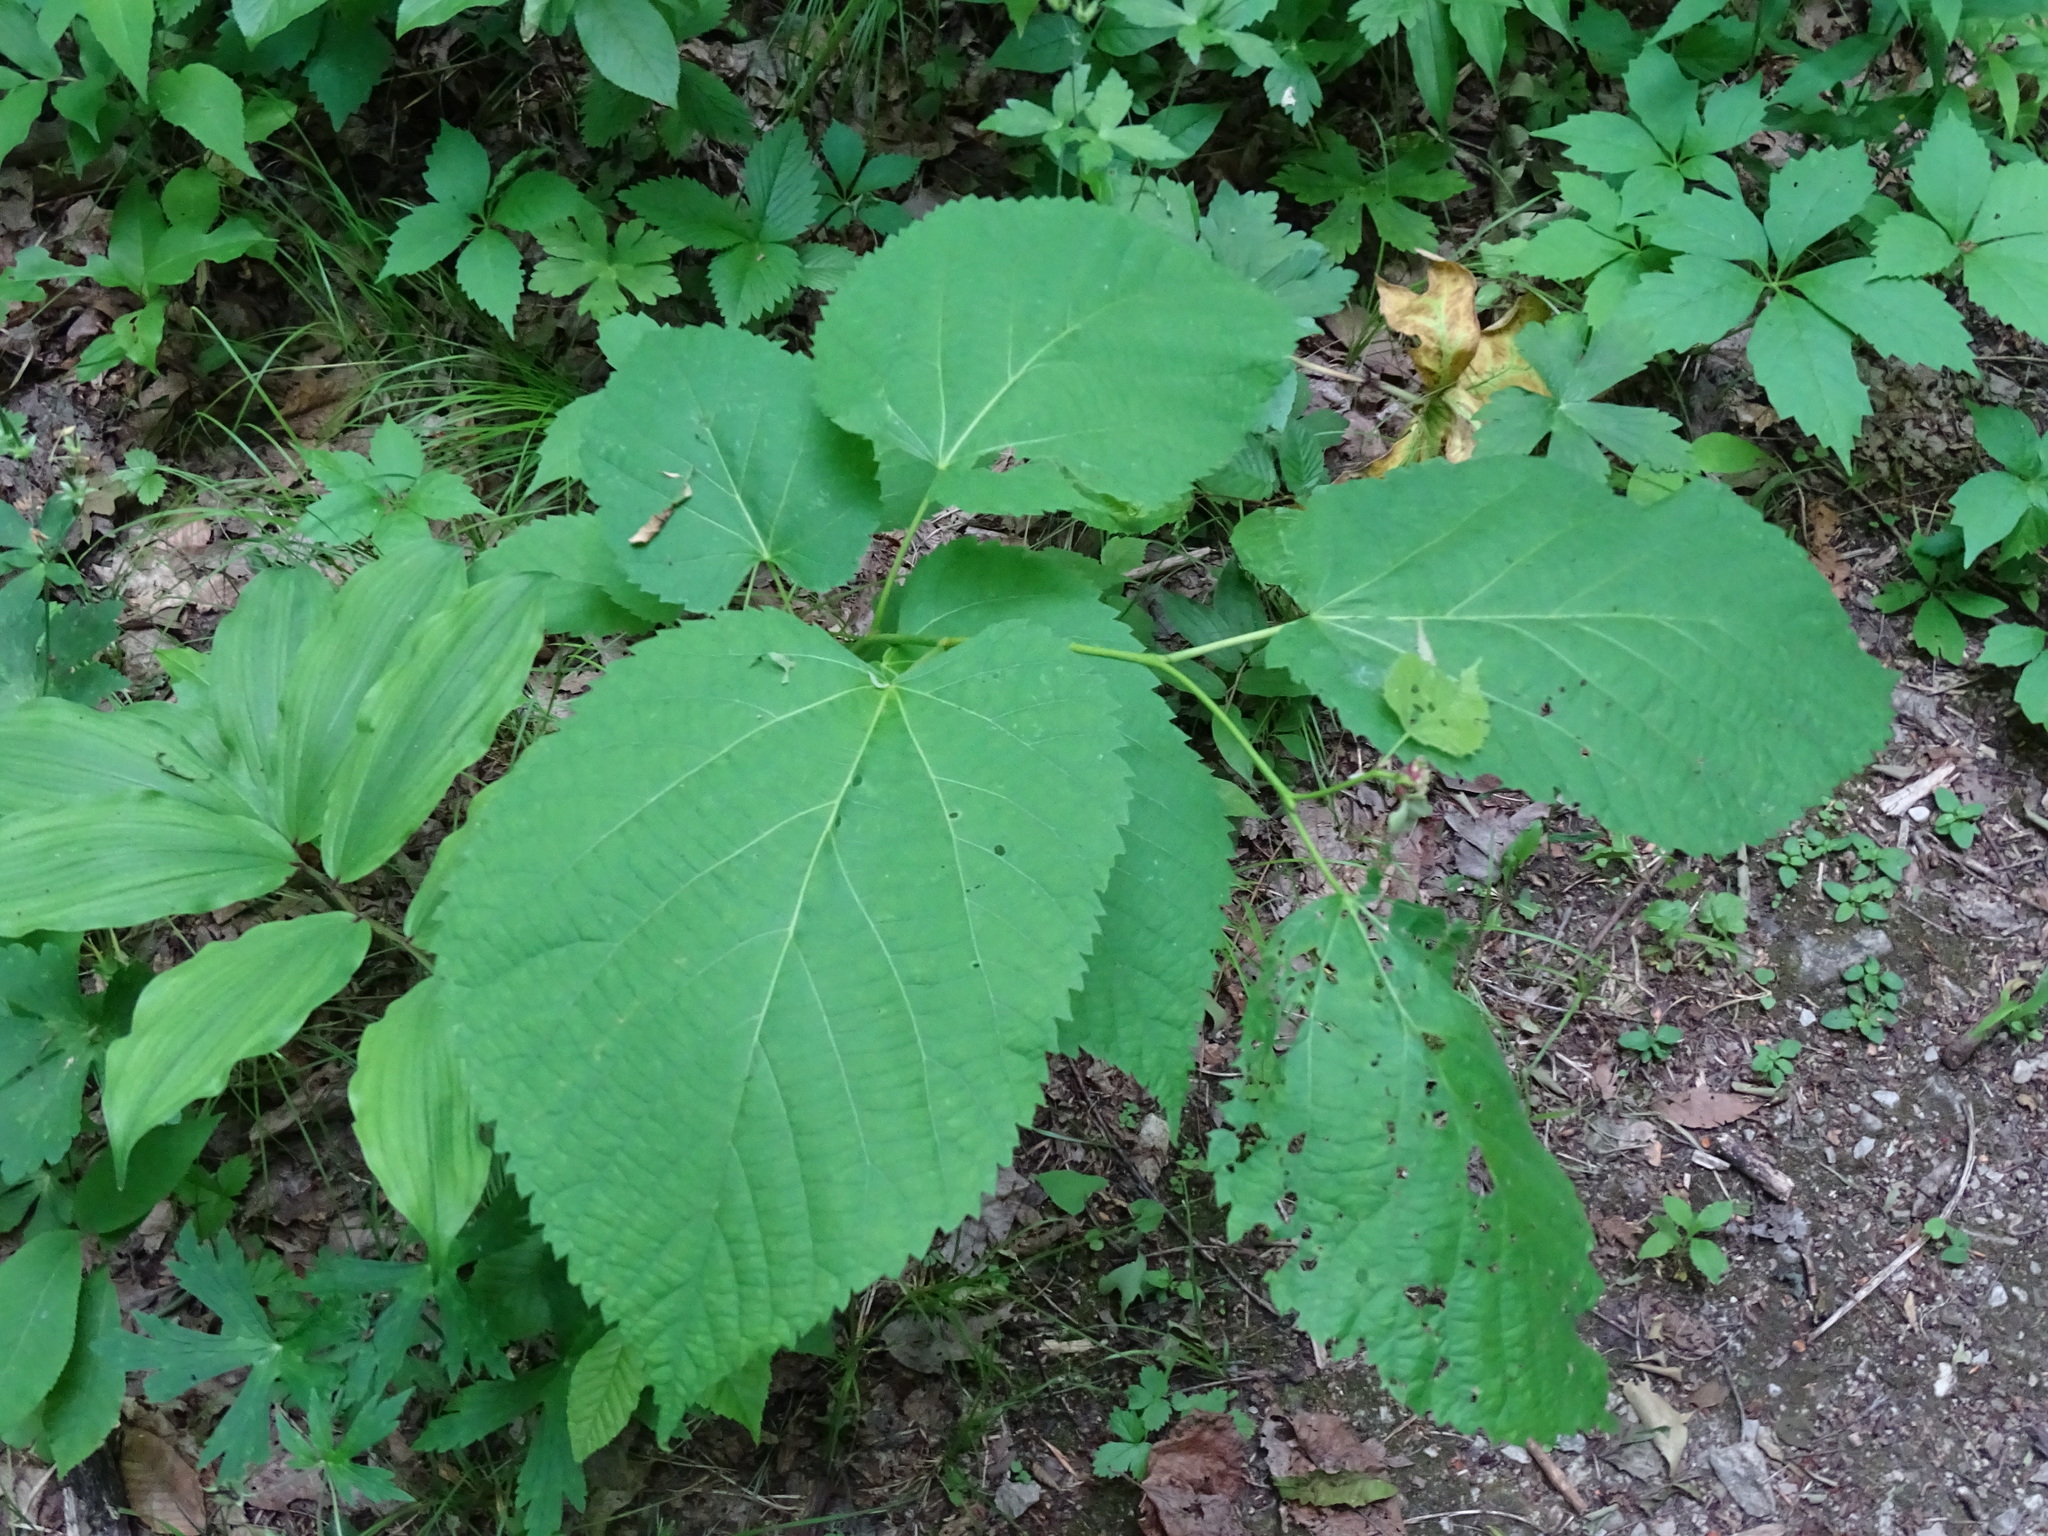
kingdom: Plantae
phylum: Tracheophyta
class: Magnoliopsida
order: Malvales
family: Malvaceae
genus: Tilia
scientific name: Tilia americana
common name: Basswood
